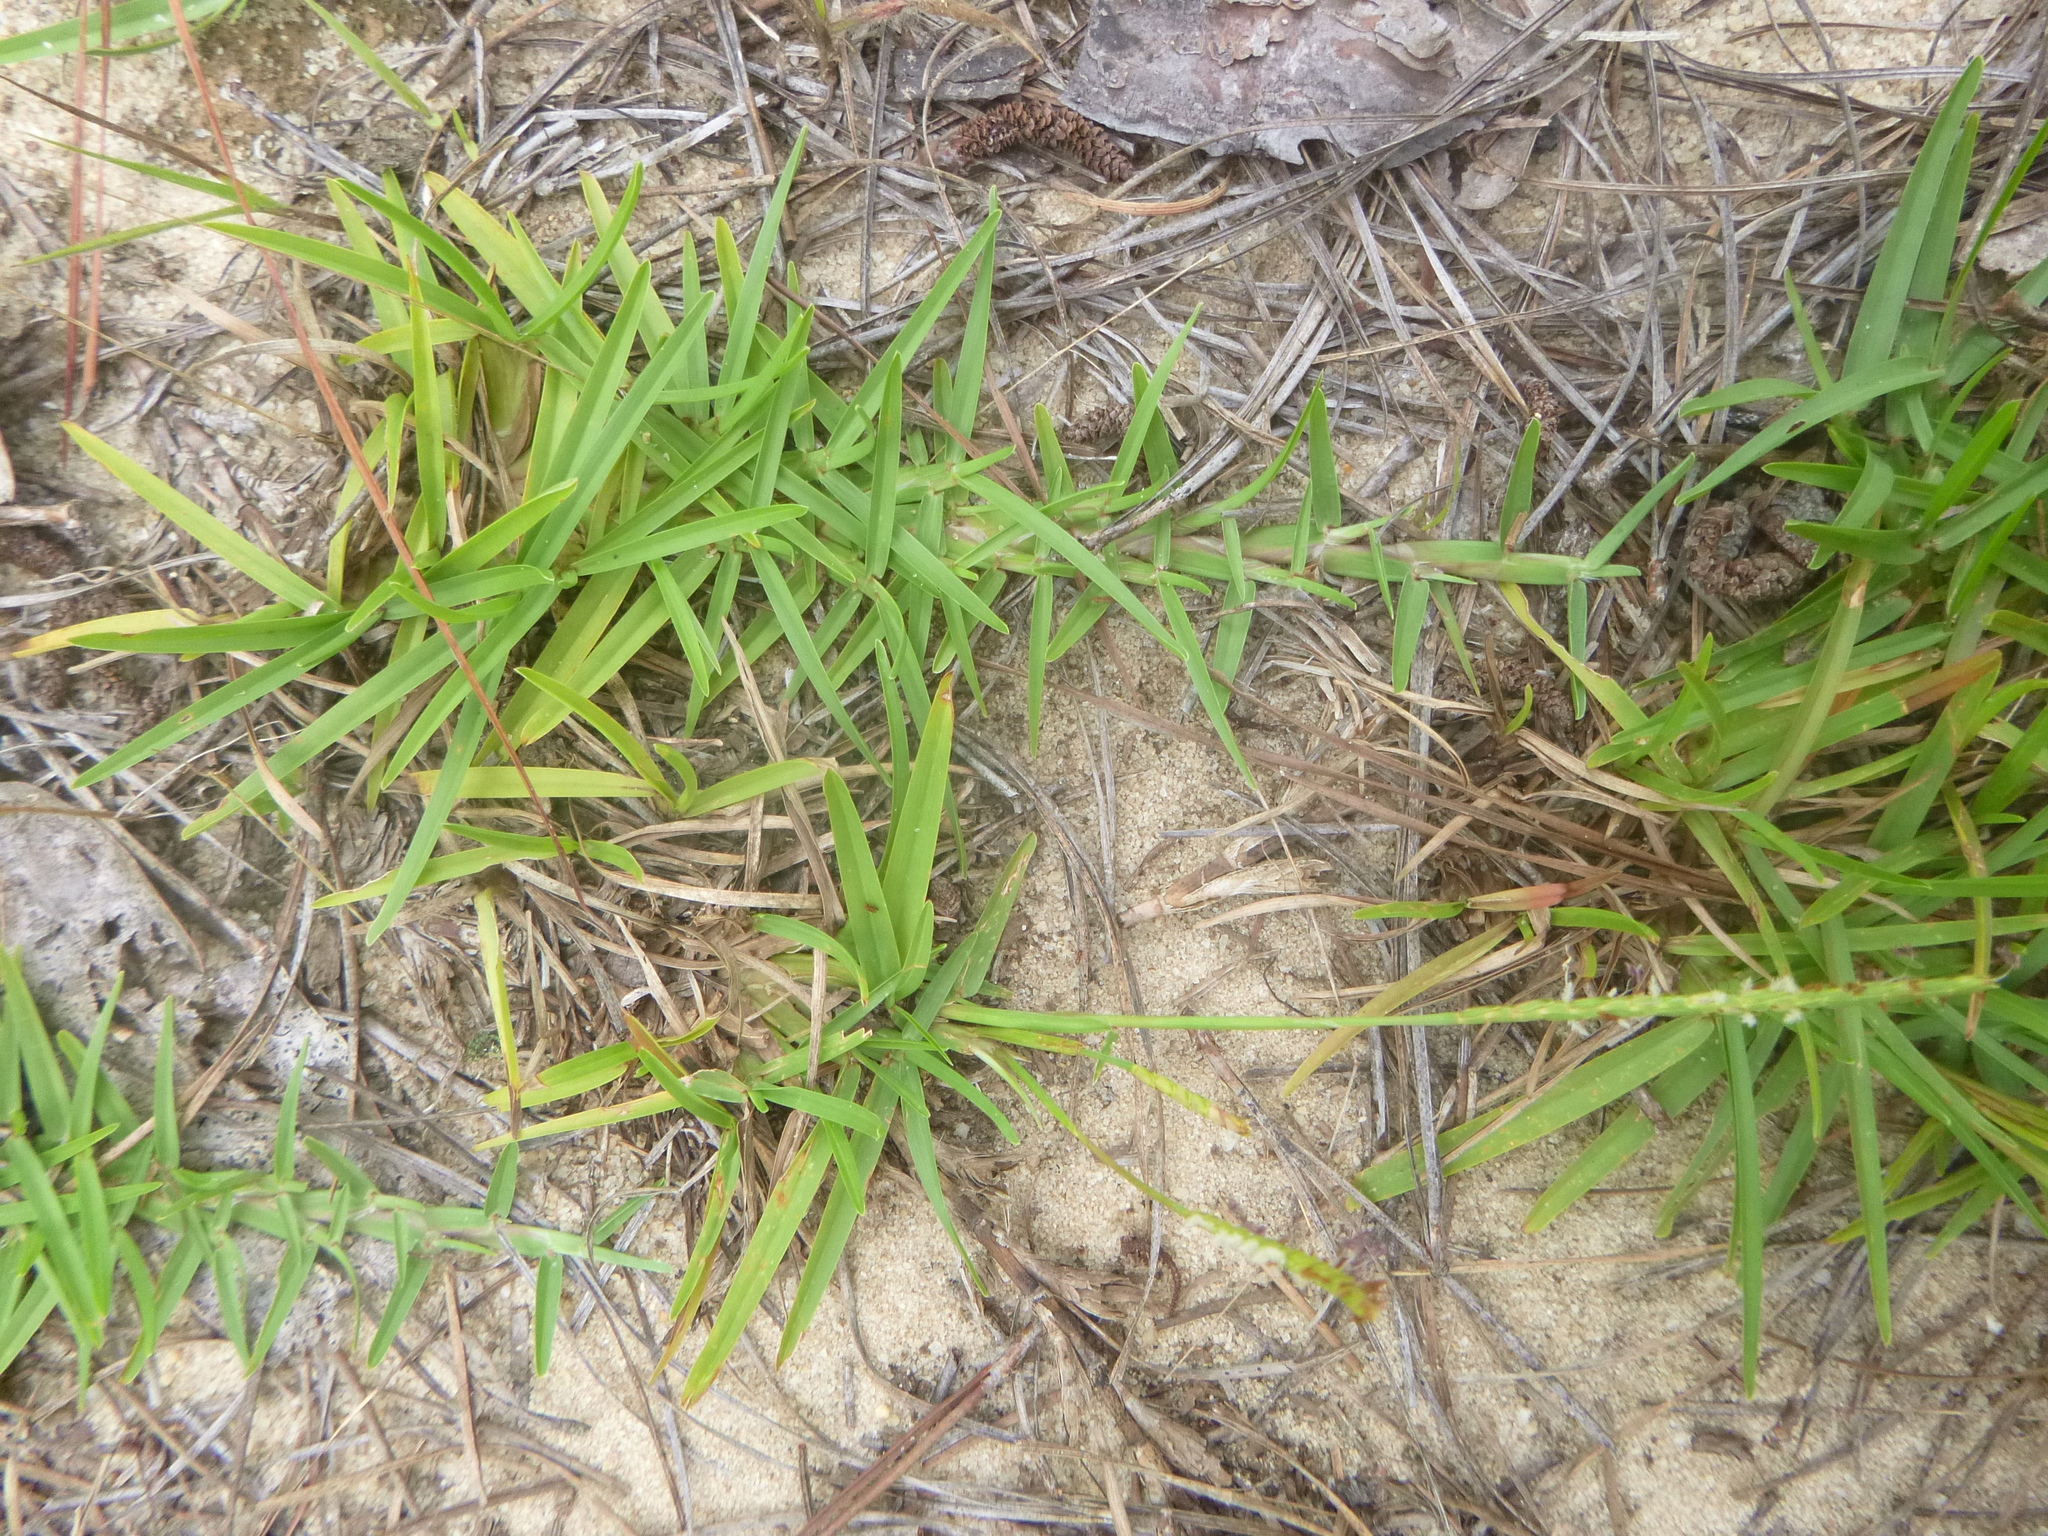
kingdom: Plantae
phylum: Tracheophyta
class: Liliopsida
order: Poales
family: Poaceae
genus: Eremochloa
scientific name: Eremochloa ophiuroides
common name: Centipede grass
